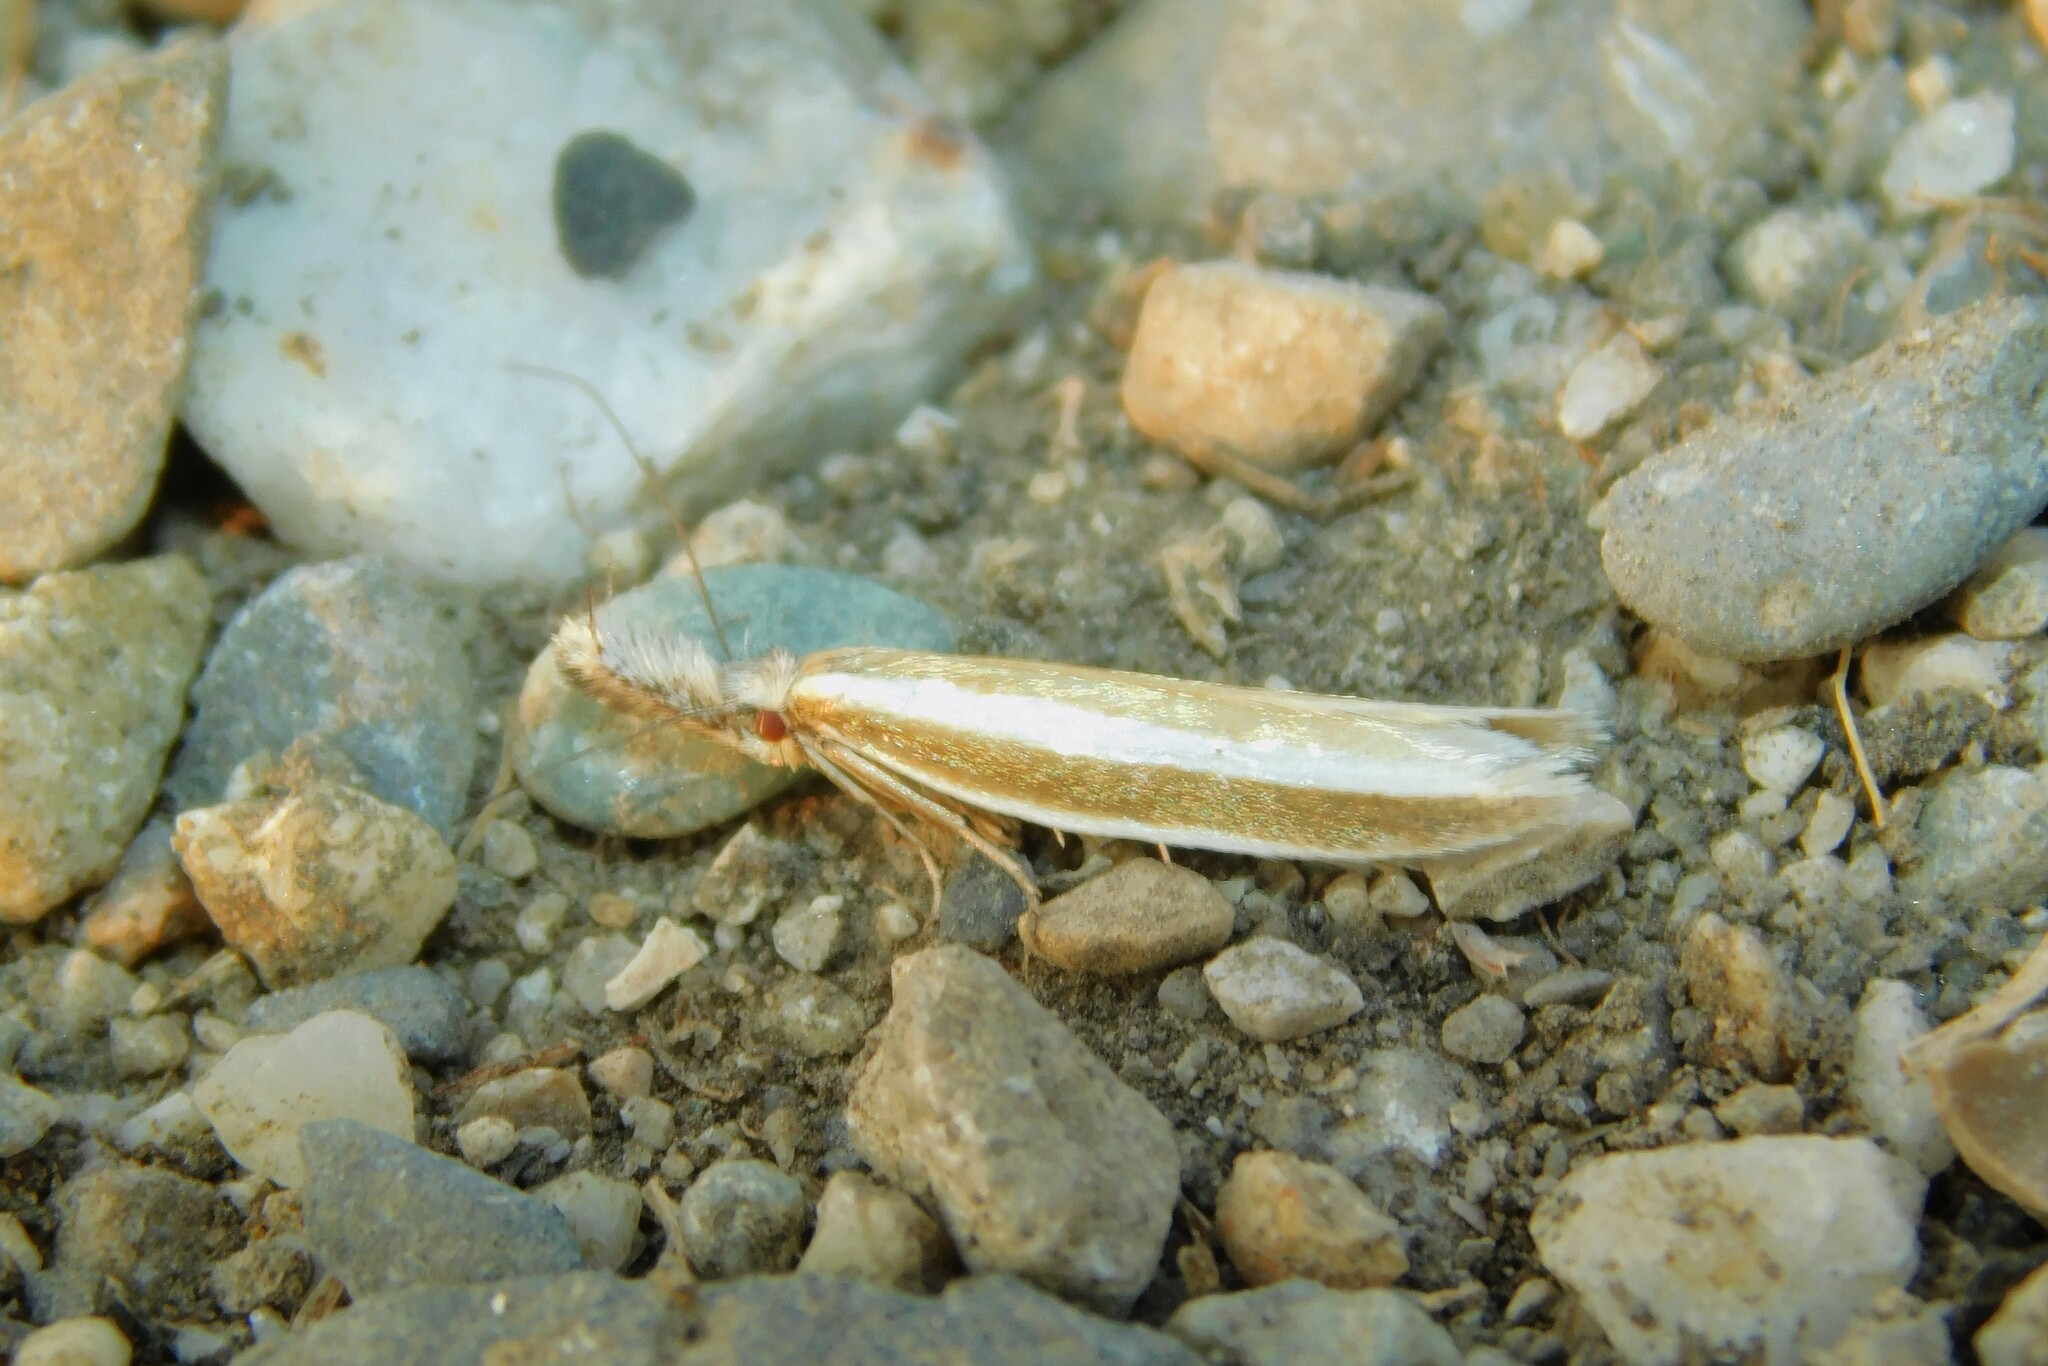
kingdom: Animalia
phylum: Arthropoda
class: Insecta
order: Lepidoptera
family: Oecophoridae
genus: Pleurota
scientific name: Pleurota aristella
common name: Southern streak
